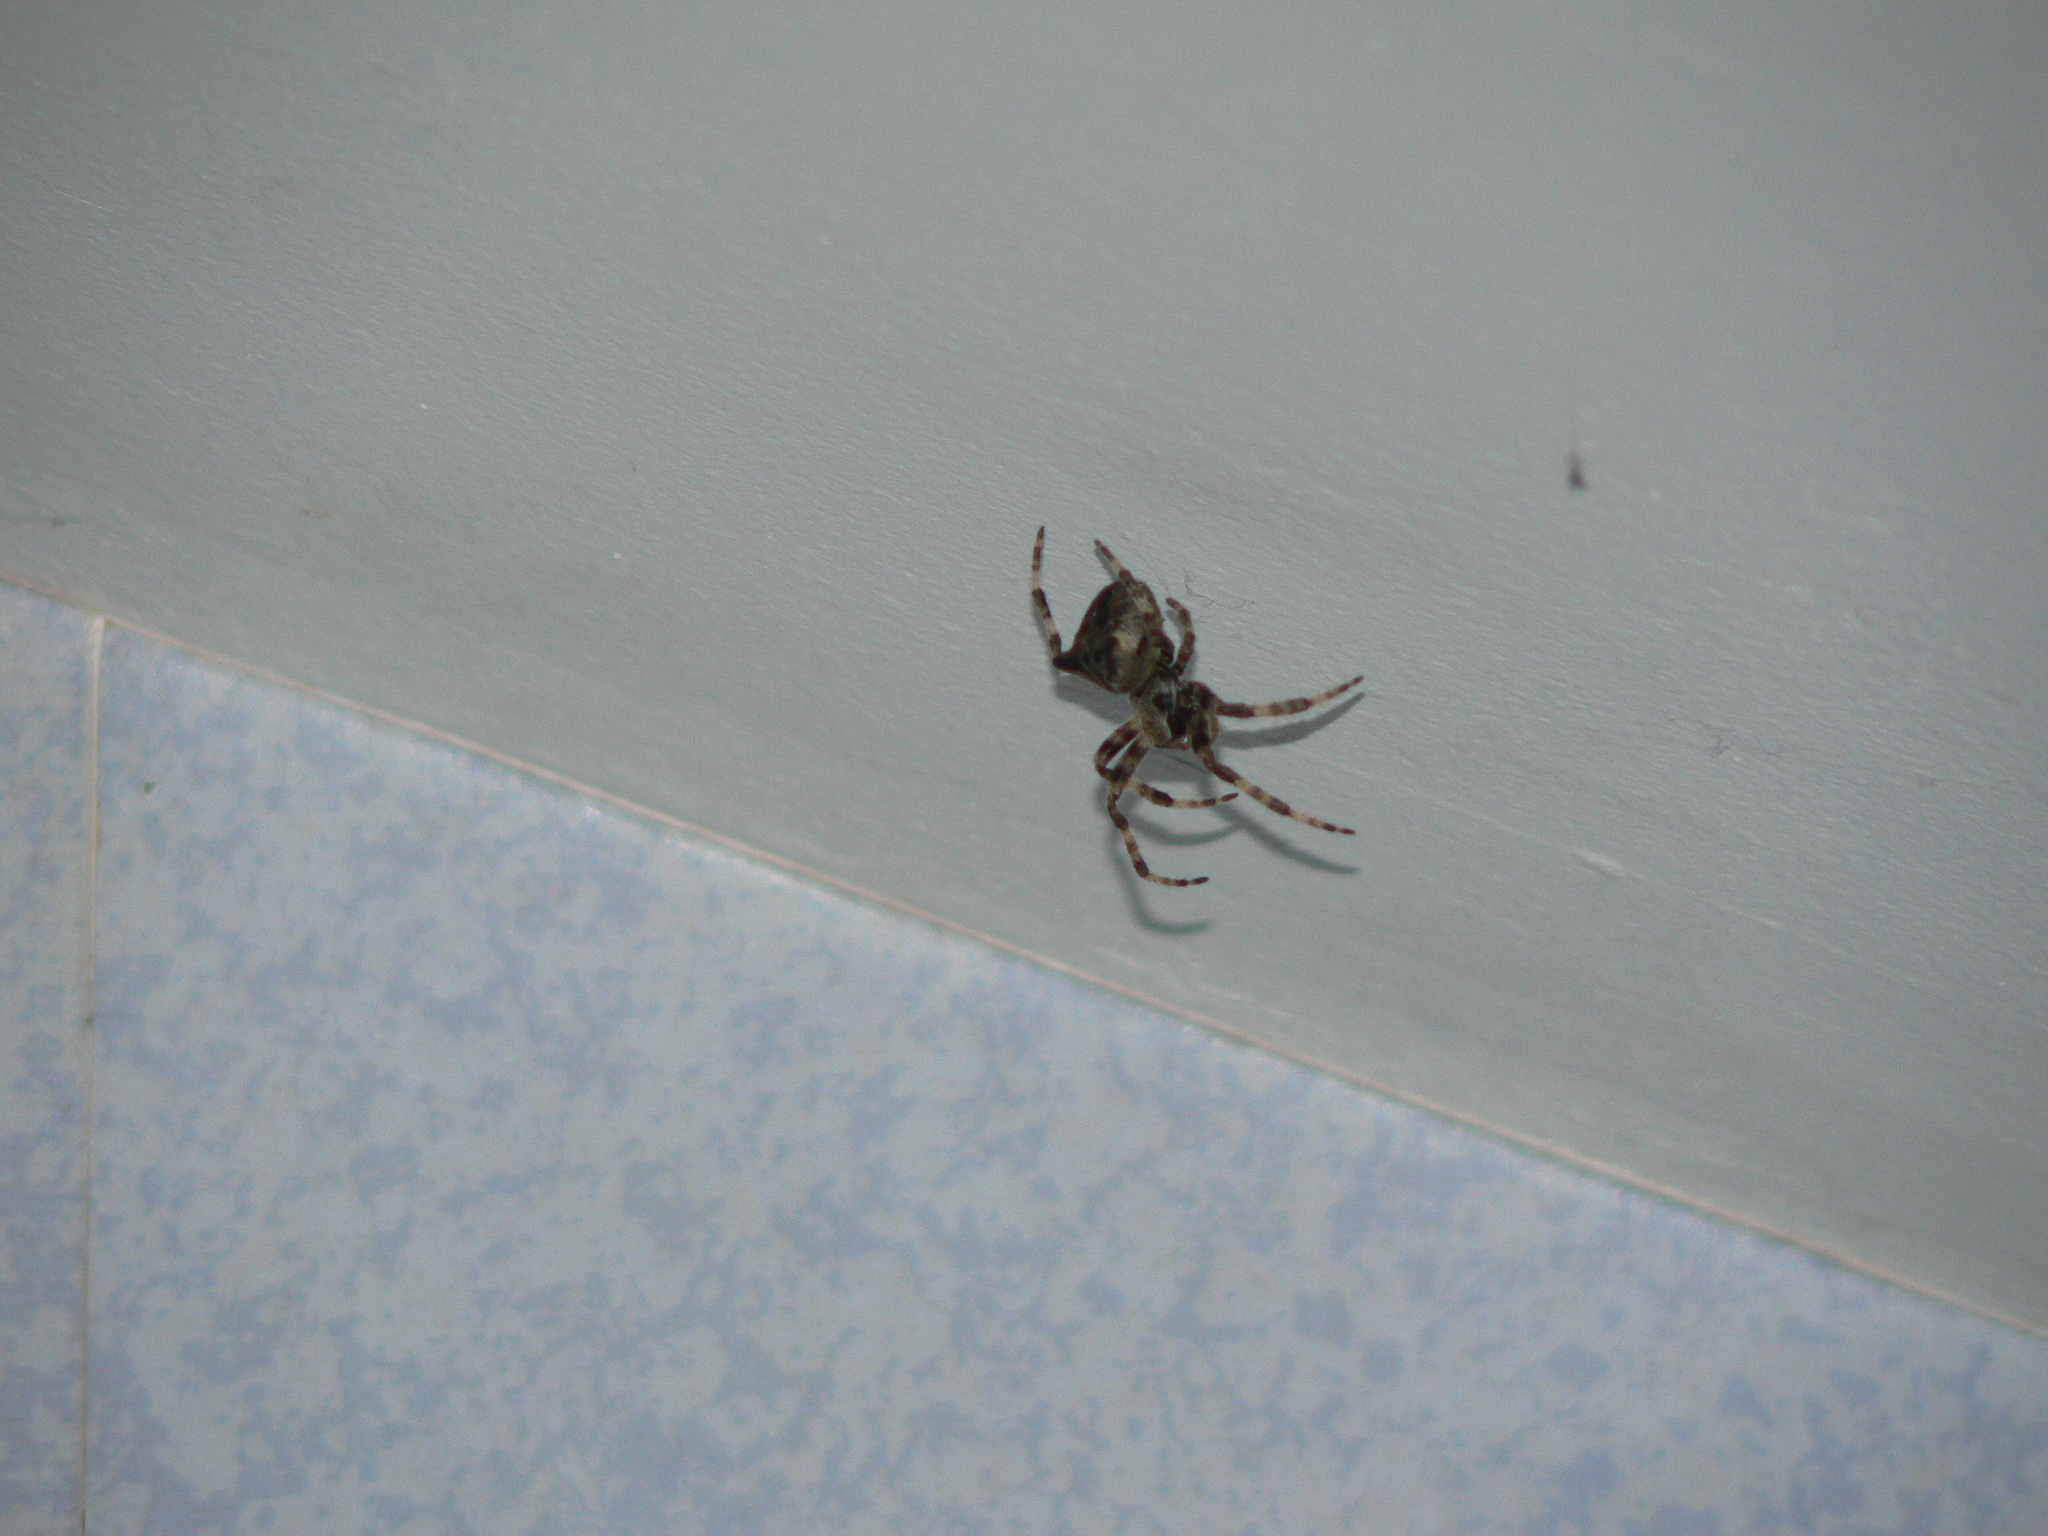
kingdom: Animalia
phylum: Arthropoda
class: Arachnida
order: Araneae
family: Araneidae
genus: Araneus
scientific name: Araneus angulatus
